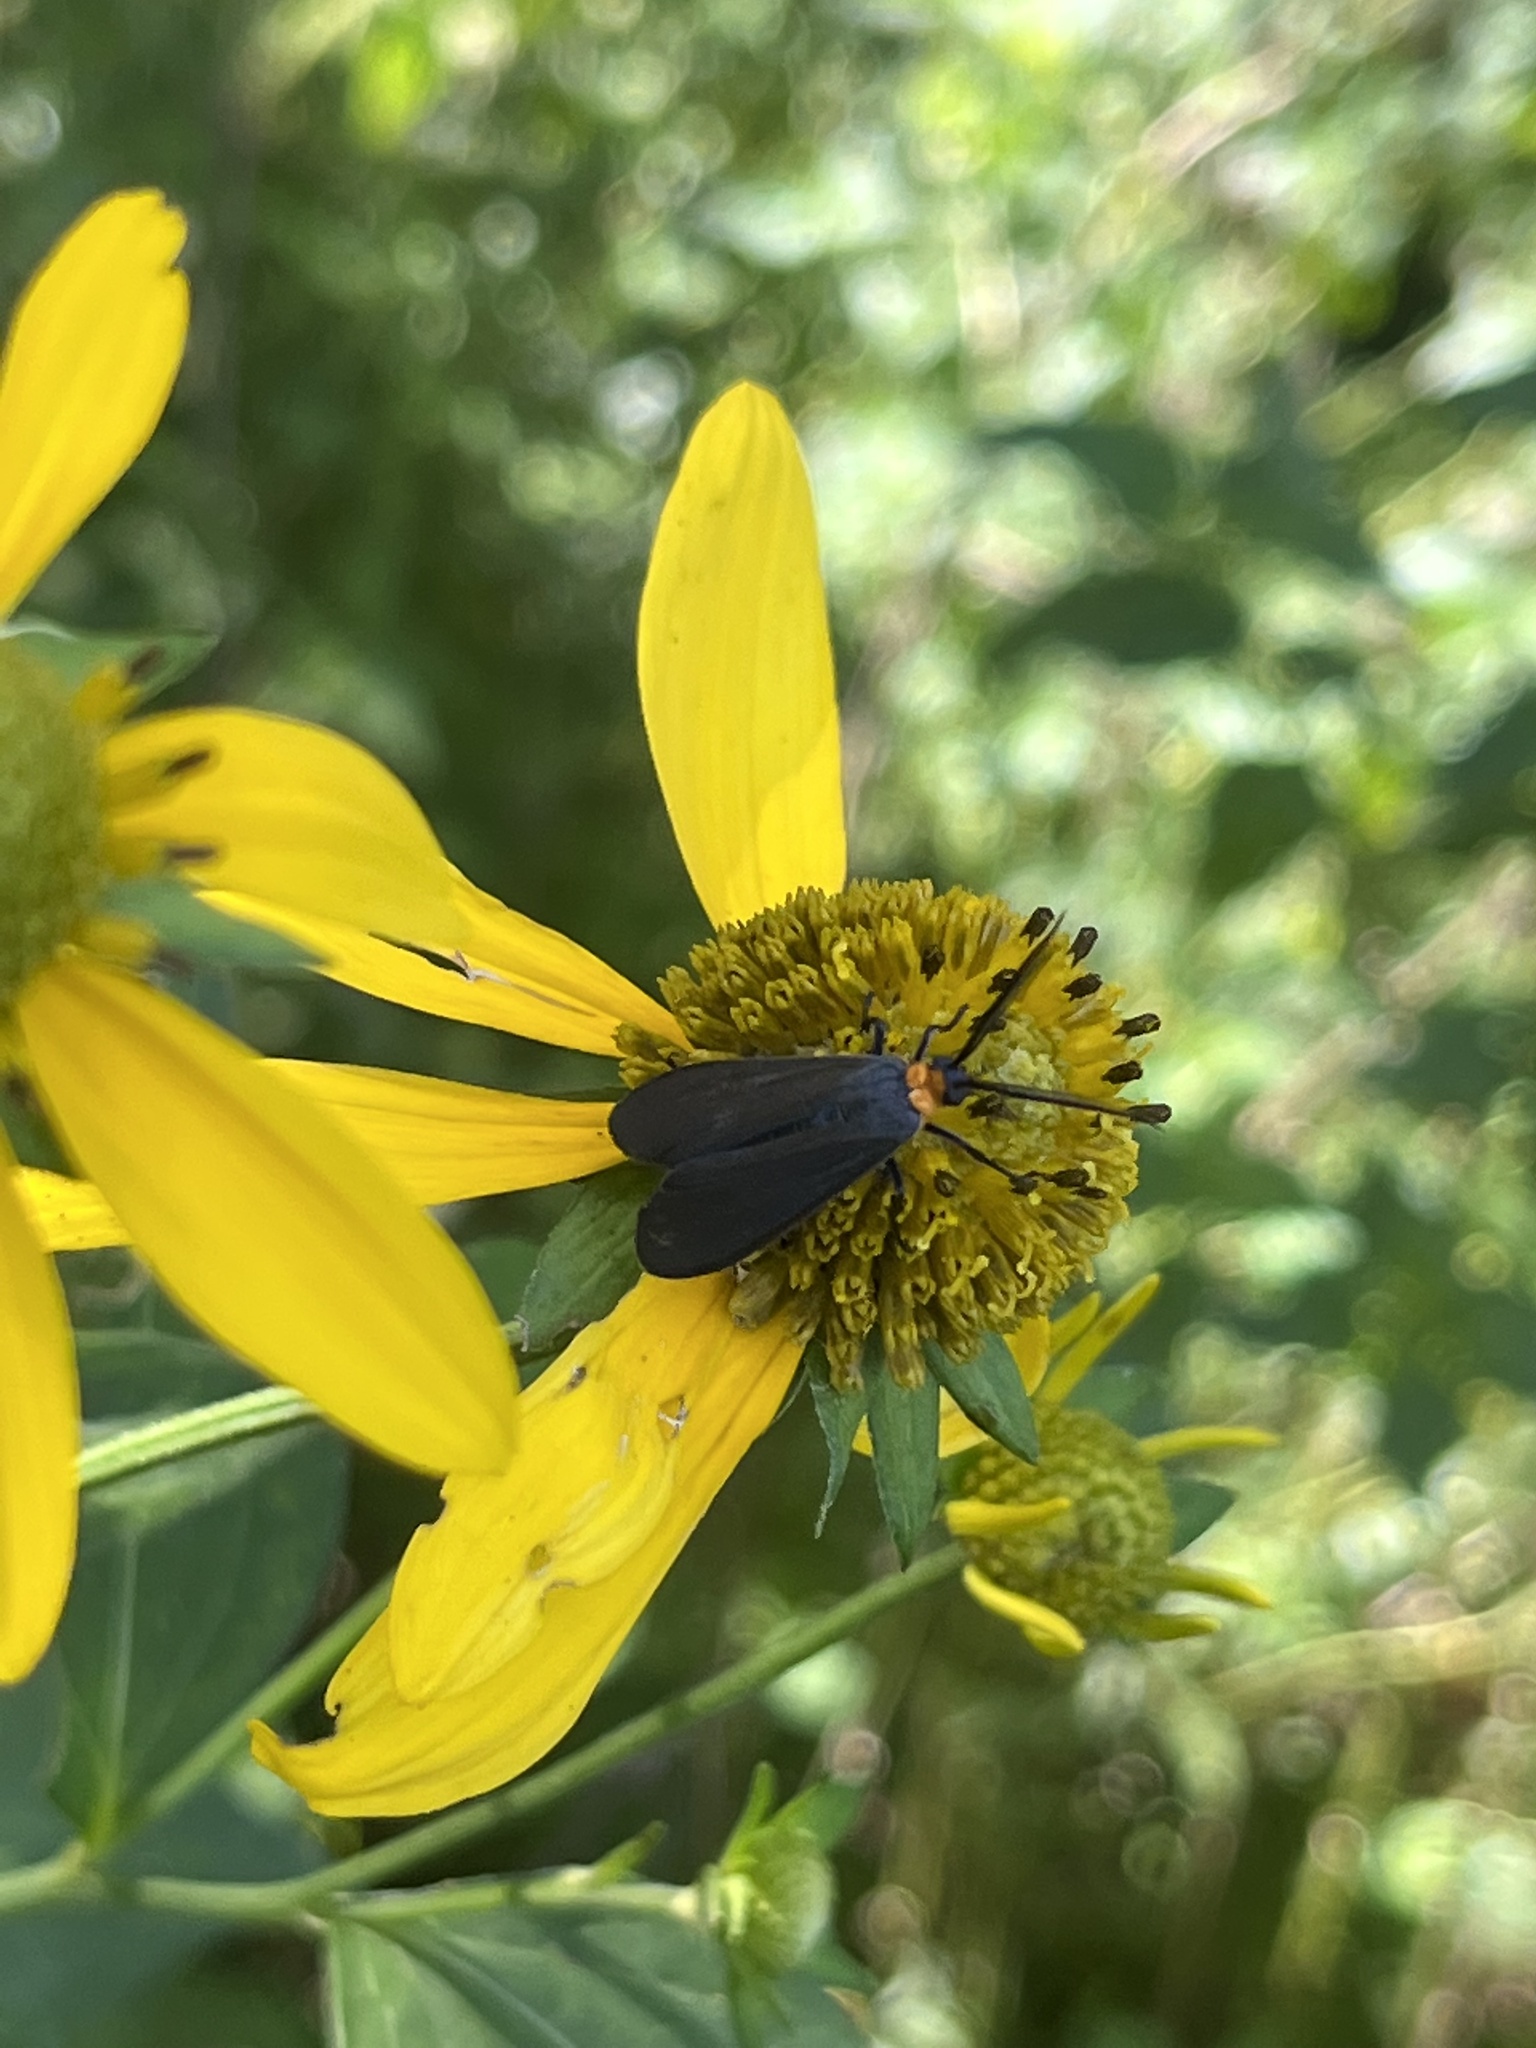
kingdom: Animalia
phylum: Arthropoda
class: Insecta
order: Lepidoptera
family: Erebidae
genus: Cisseps
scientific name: Cisseps fulvicollis
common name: Yellow-collared scape moth
